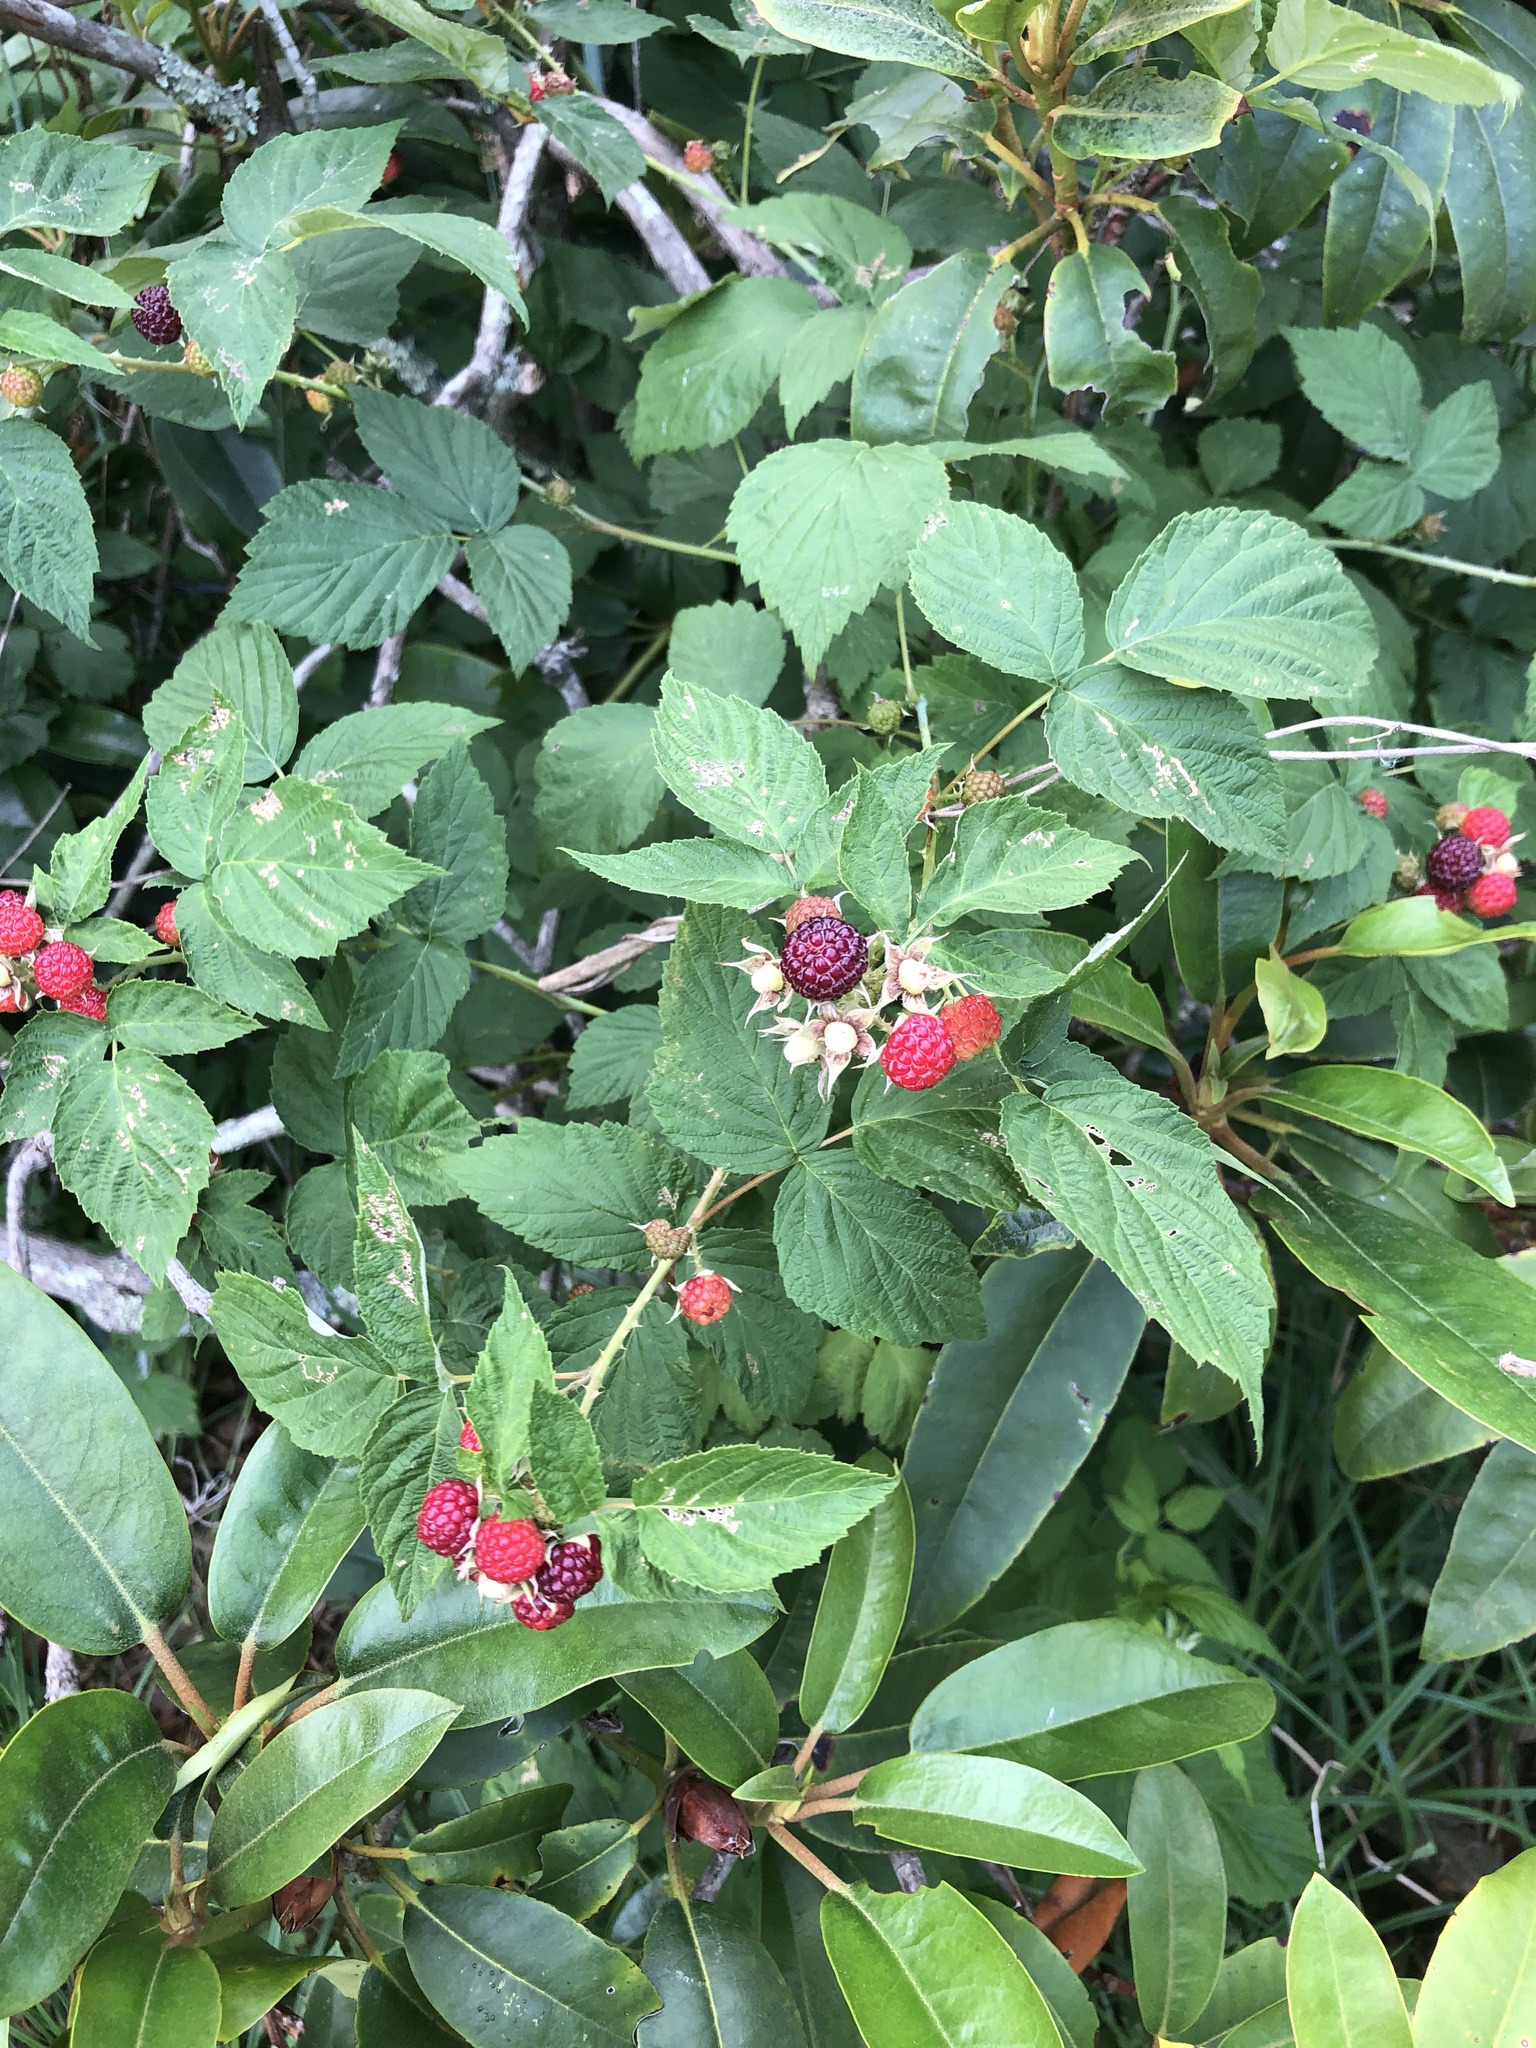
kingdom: Plantae
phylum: Tracheophyta
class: Magnoliopsida
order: Rosales
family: Rosaceae
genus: Rubus
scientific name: Rubus occidentalis
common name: Black raspberry
